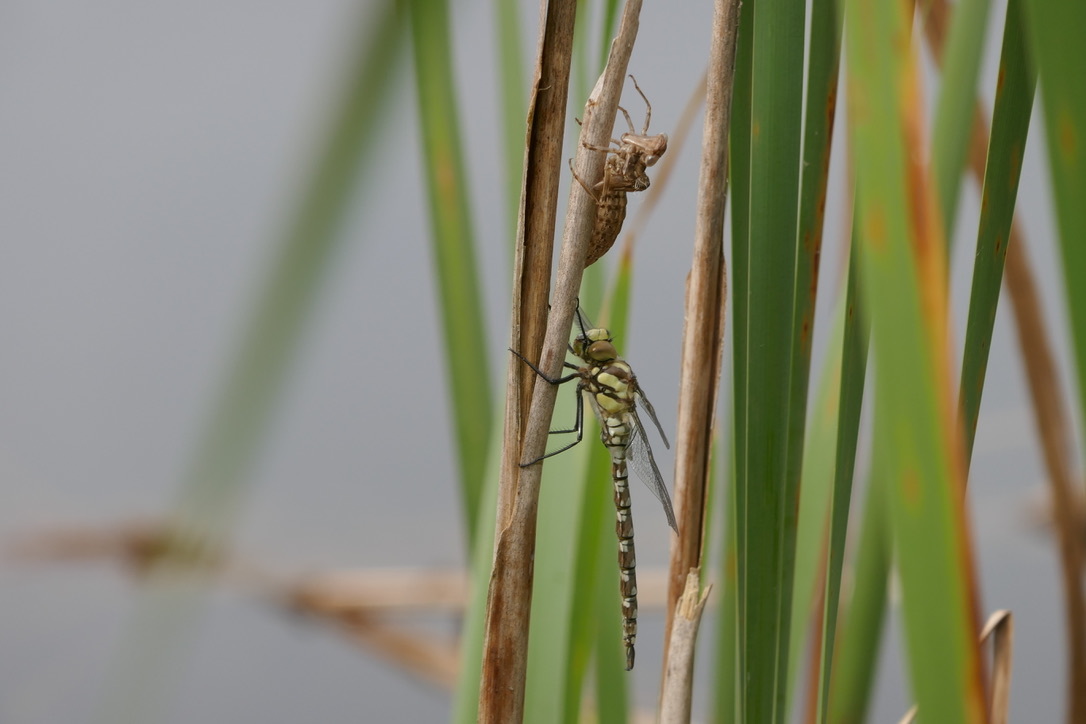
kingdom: Animalia
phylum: Arthropoda
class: Insecta
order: Odonata
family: Aeshnidae
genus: Aeshna
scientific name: Aeshna cyanea
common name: Southern hawker
